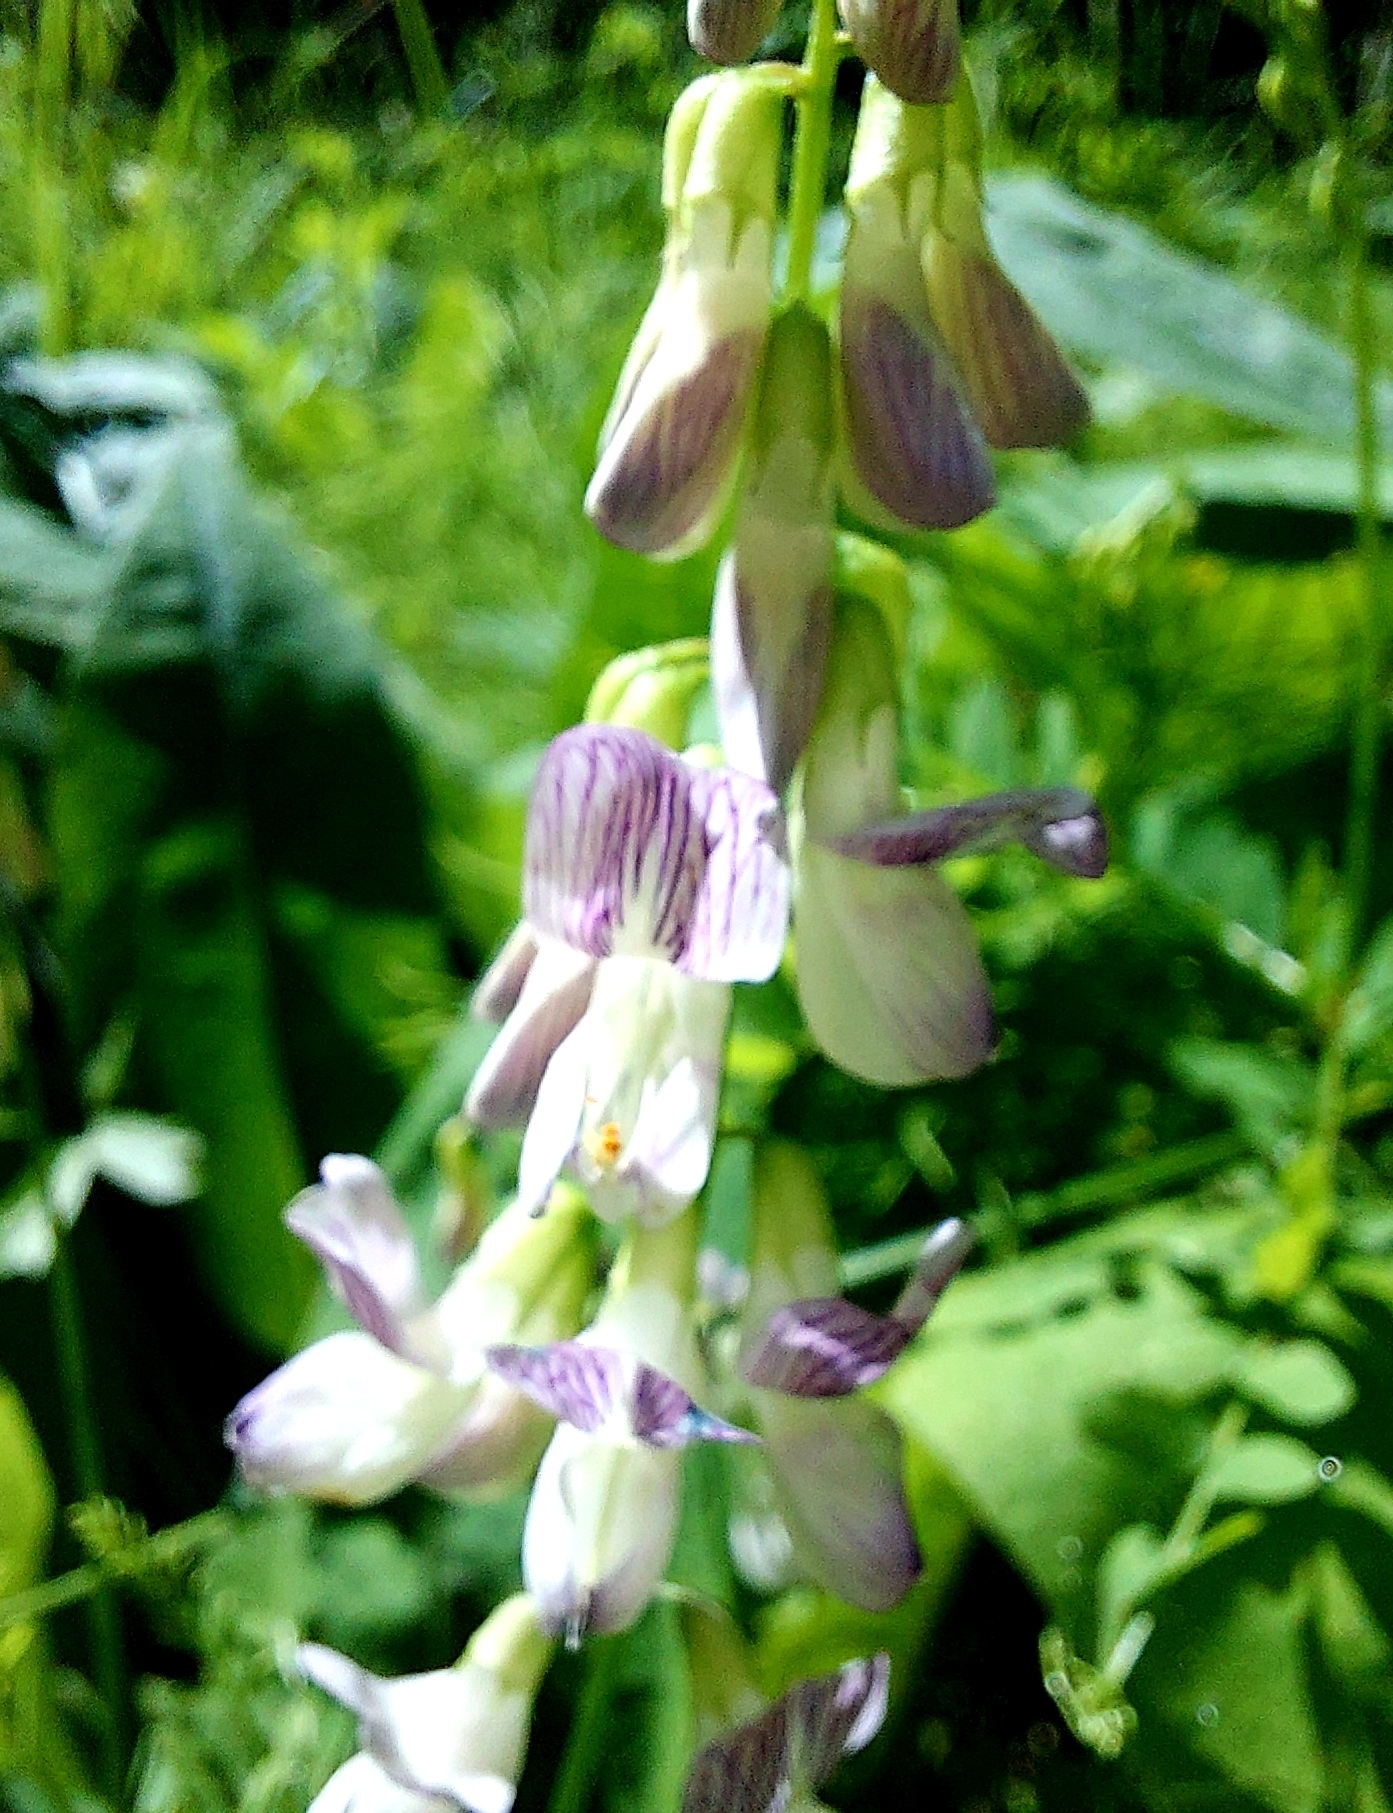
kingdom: Plantae
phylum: Tracheophyta
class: Magnoliopsida
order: Fabales
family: Fabaceae
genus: Vicia
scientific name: Vicia sylvatica
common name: Wood vetch
